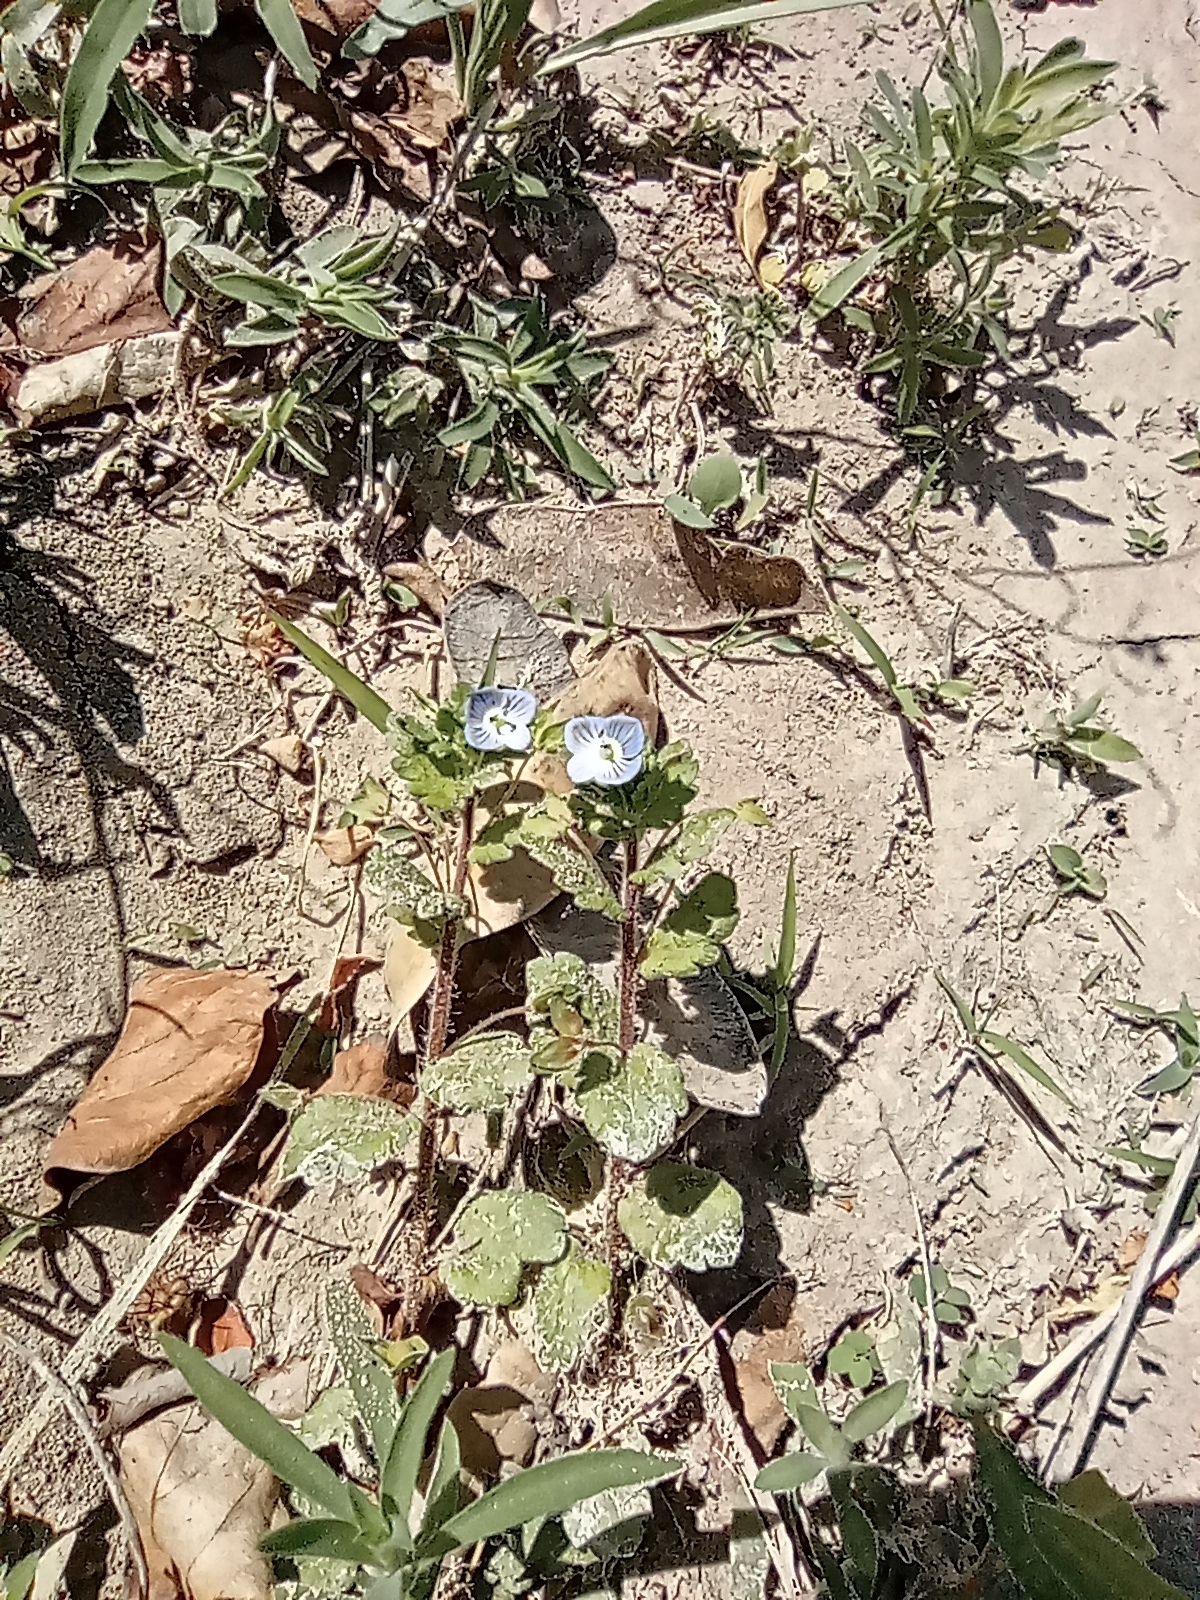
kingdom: Plantae
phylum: Tracheophyta
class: Magnoliopsida
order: Lamiales
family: Plantaginaceae
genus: Veronica
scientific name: Veronica persica
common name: Common field-speedwell
